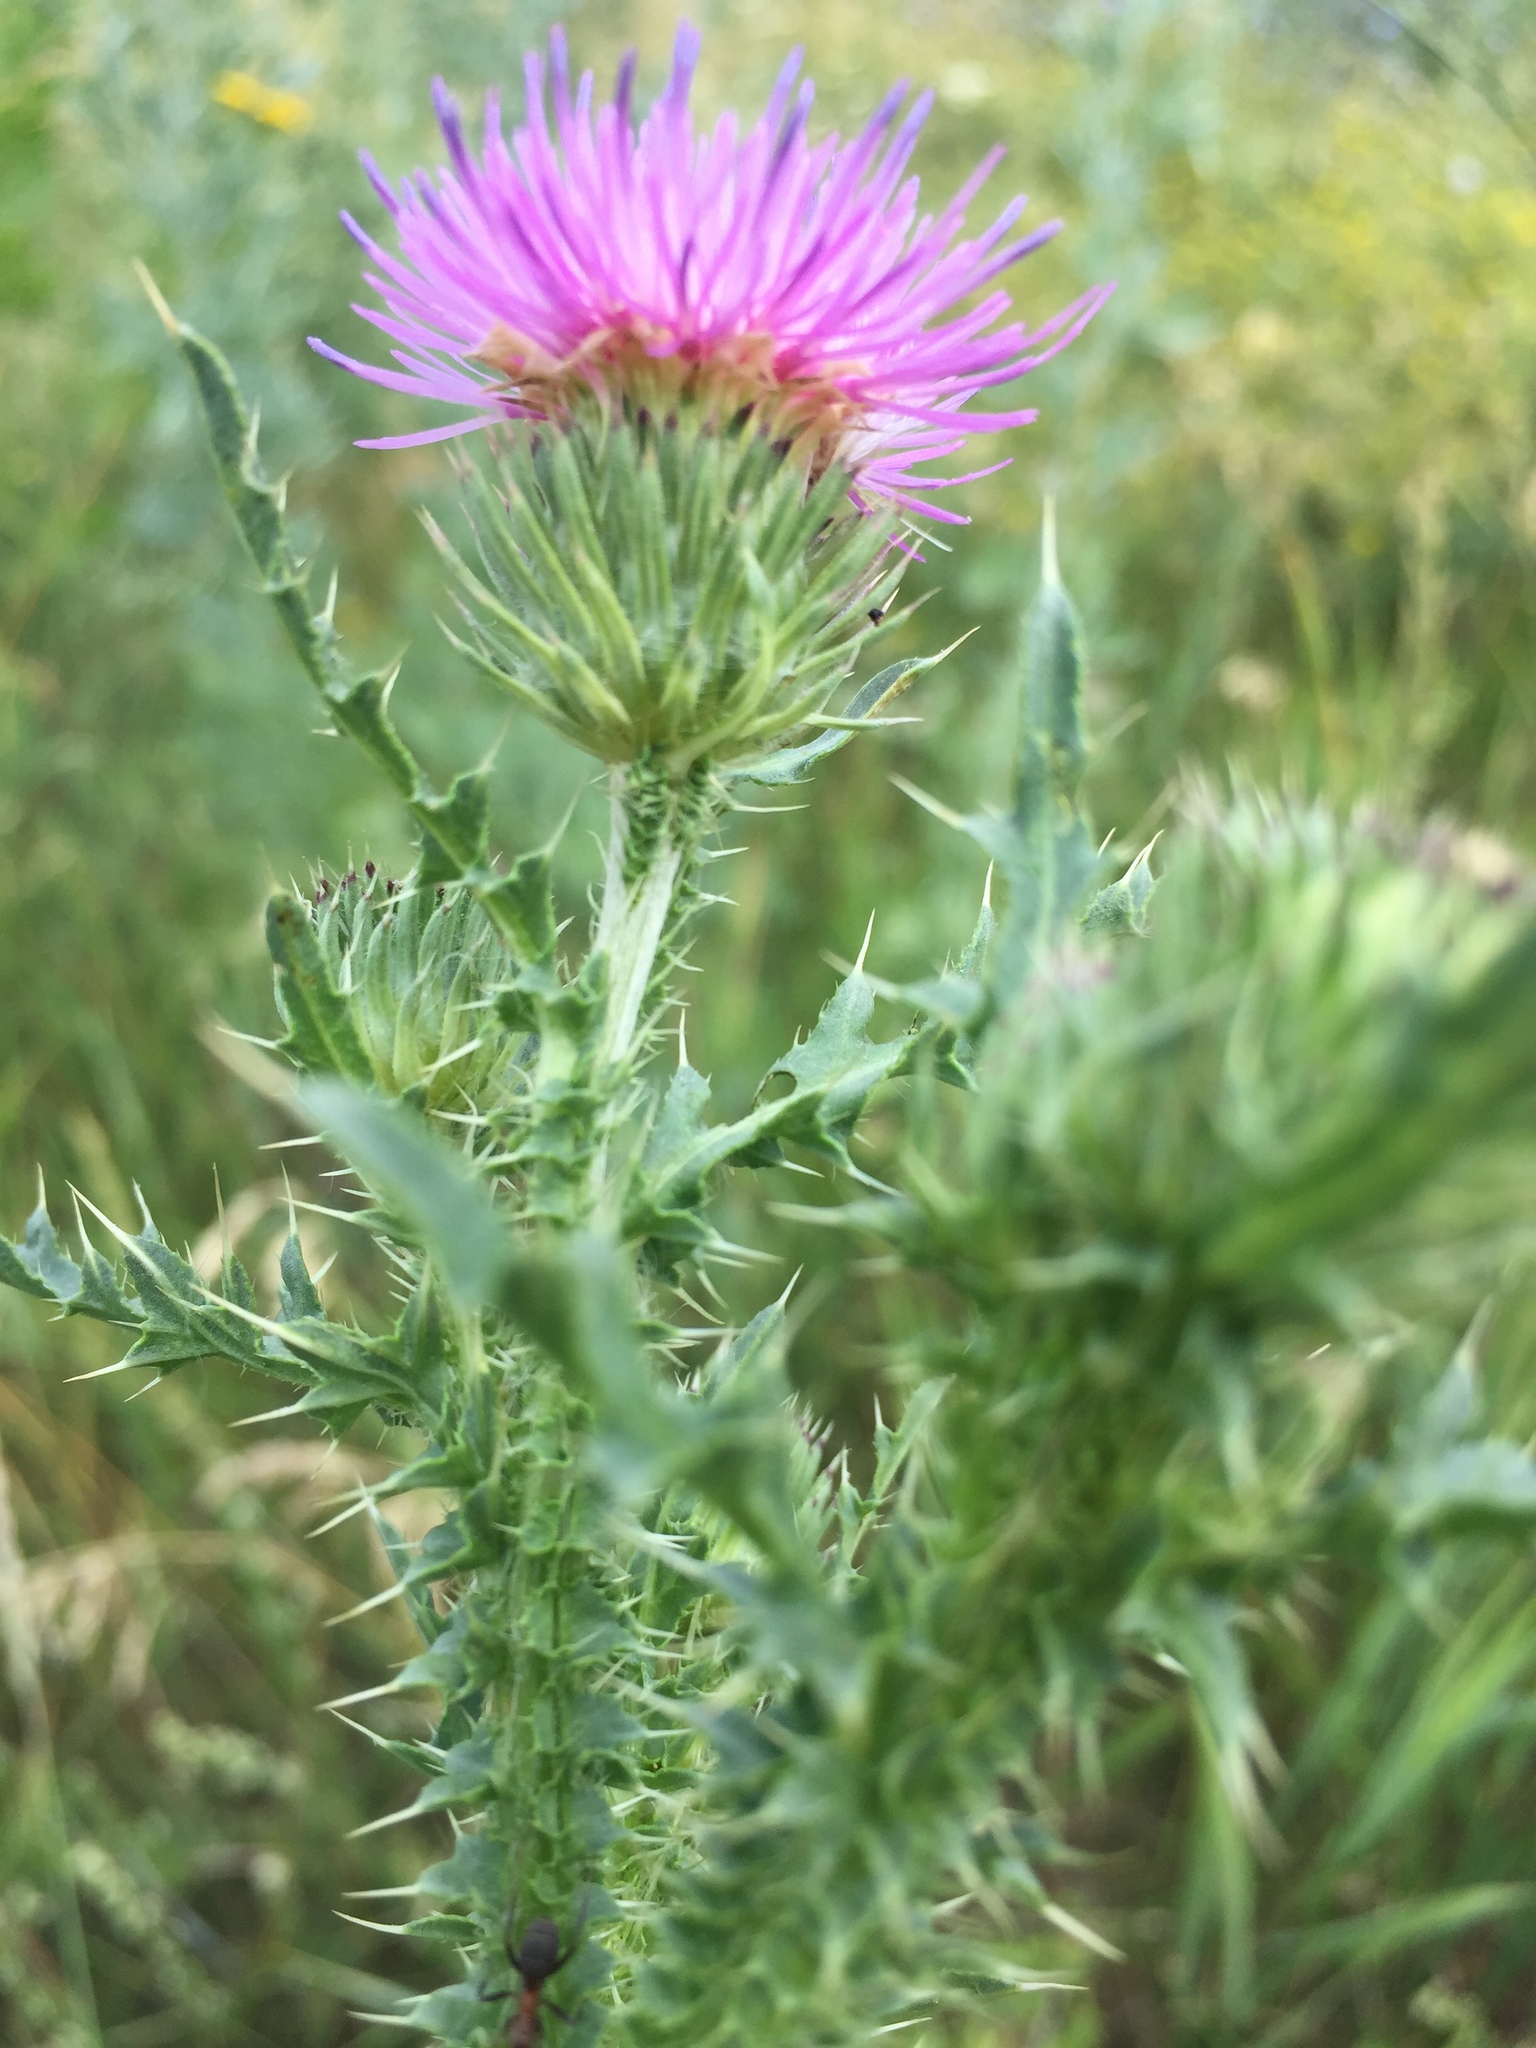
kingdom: Plantae
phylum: Tracheophyta
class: Magnoliopsida
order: Asterales
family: Asteraceae
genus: Carduus
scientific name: Carduus acanthoides
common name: Plumeless thistle
